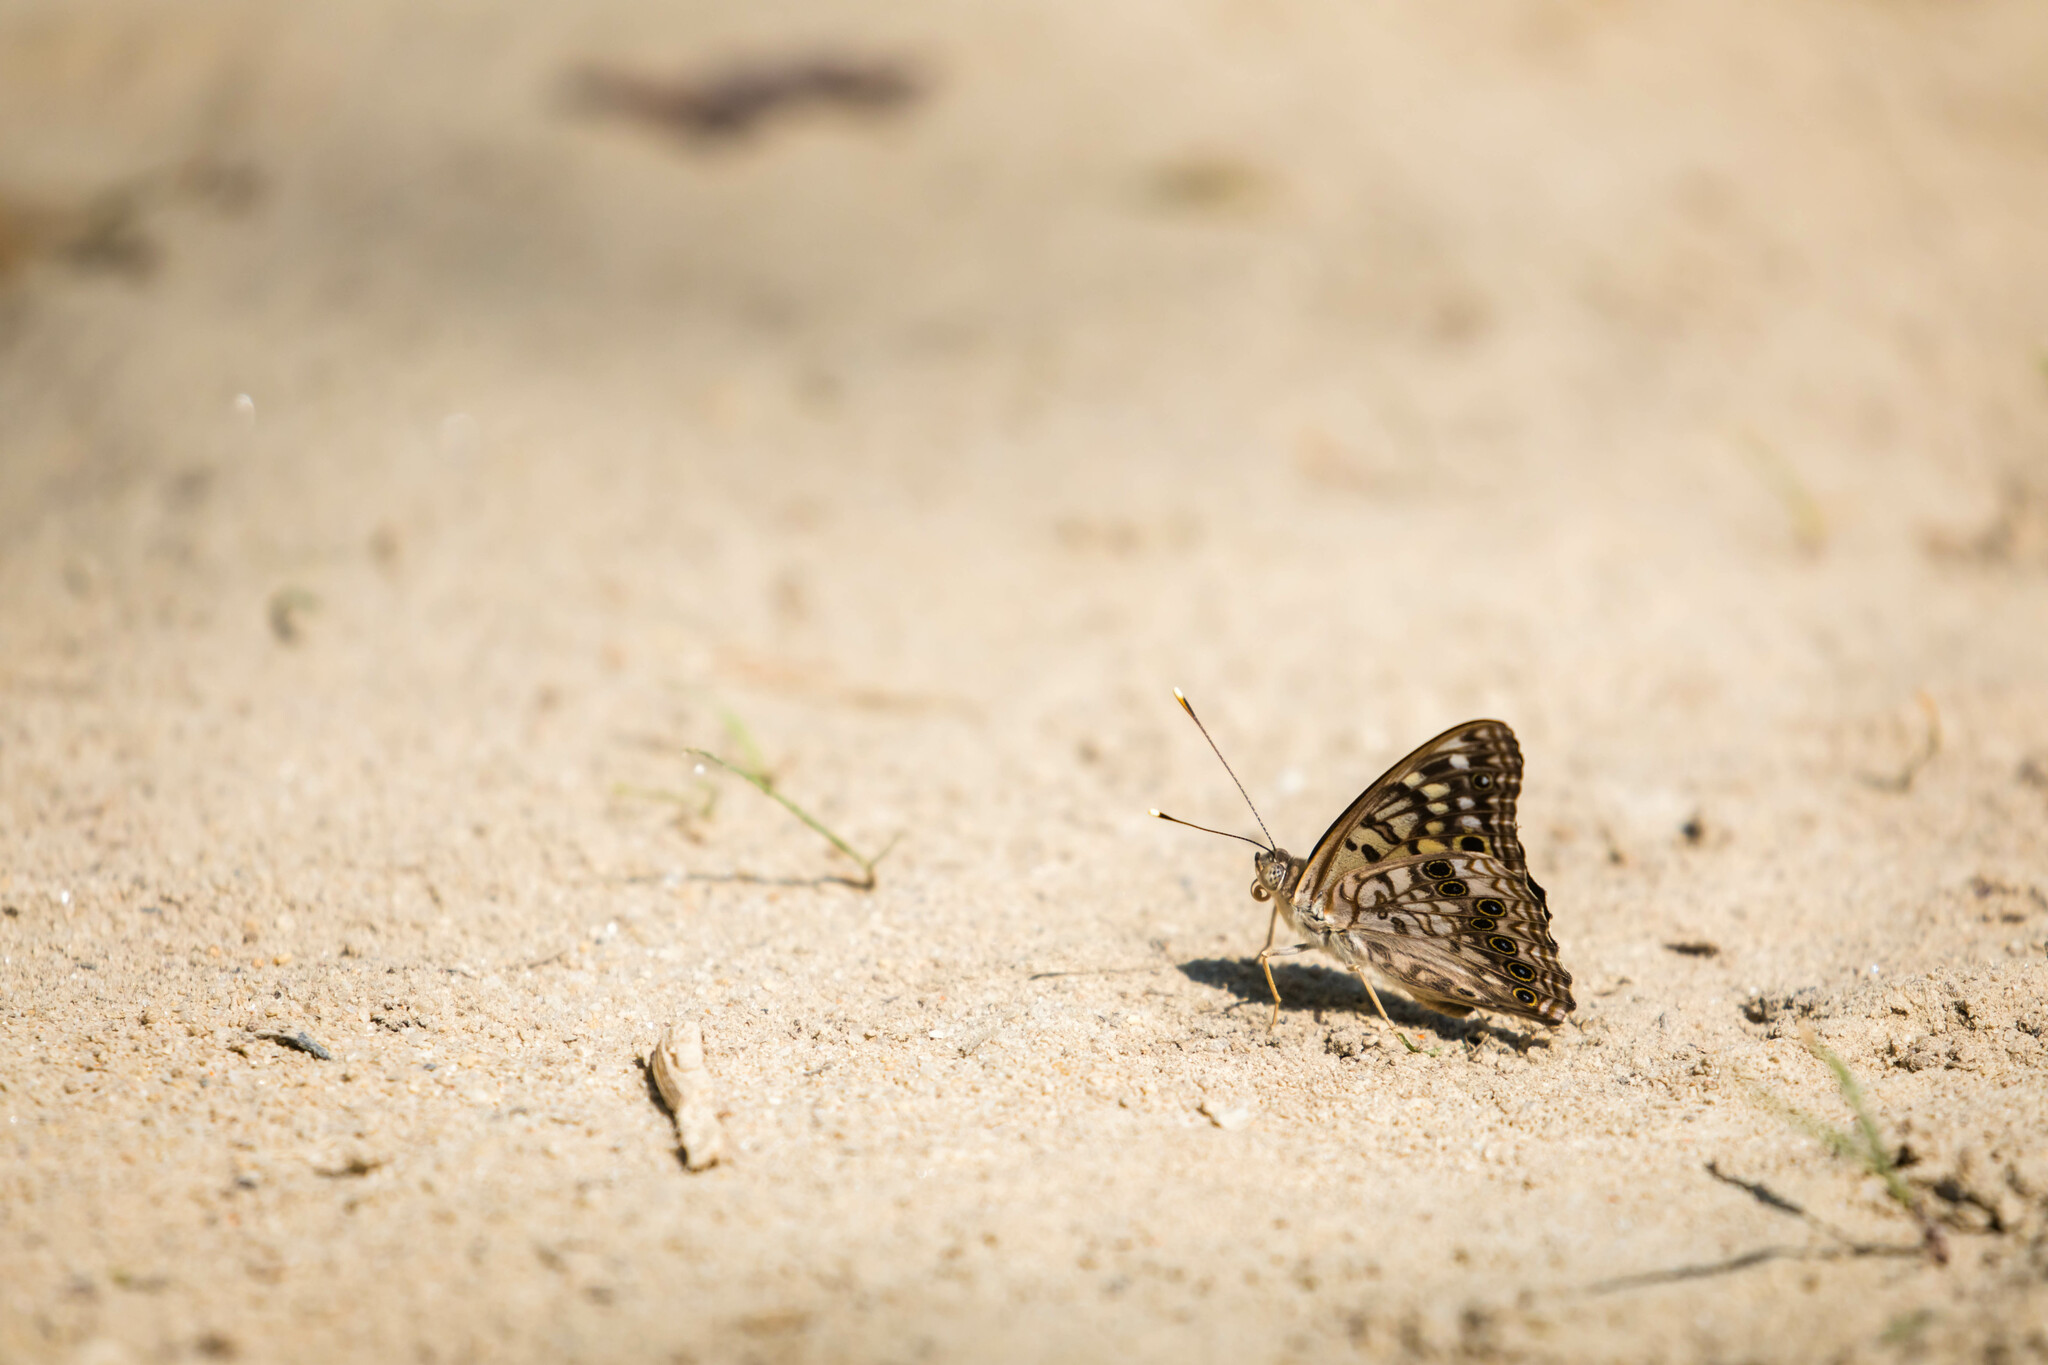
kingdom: Animalia
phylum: Arthropoda
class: Insecta
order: Lepidoptera
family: Nymphalidae
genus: Asterocampa
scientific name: Asterocampa celtis
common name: Hackberry emperor
